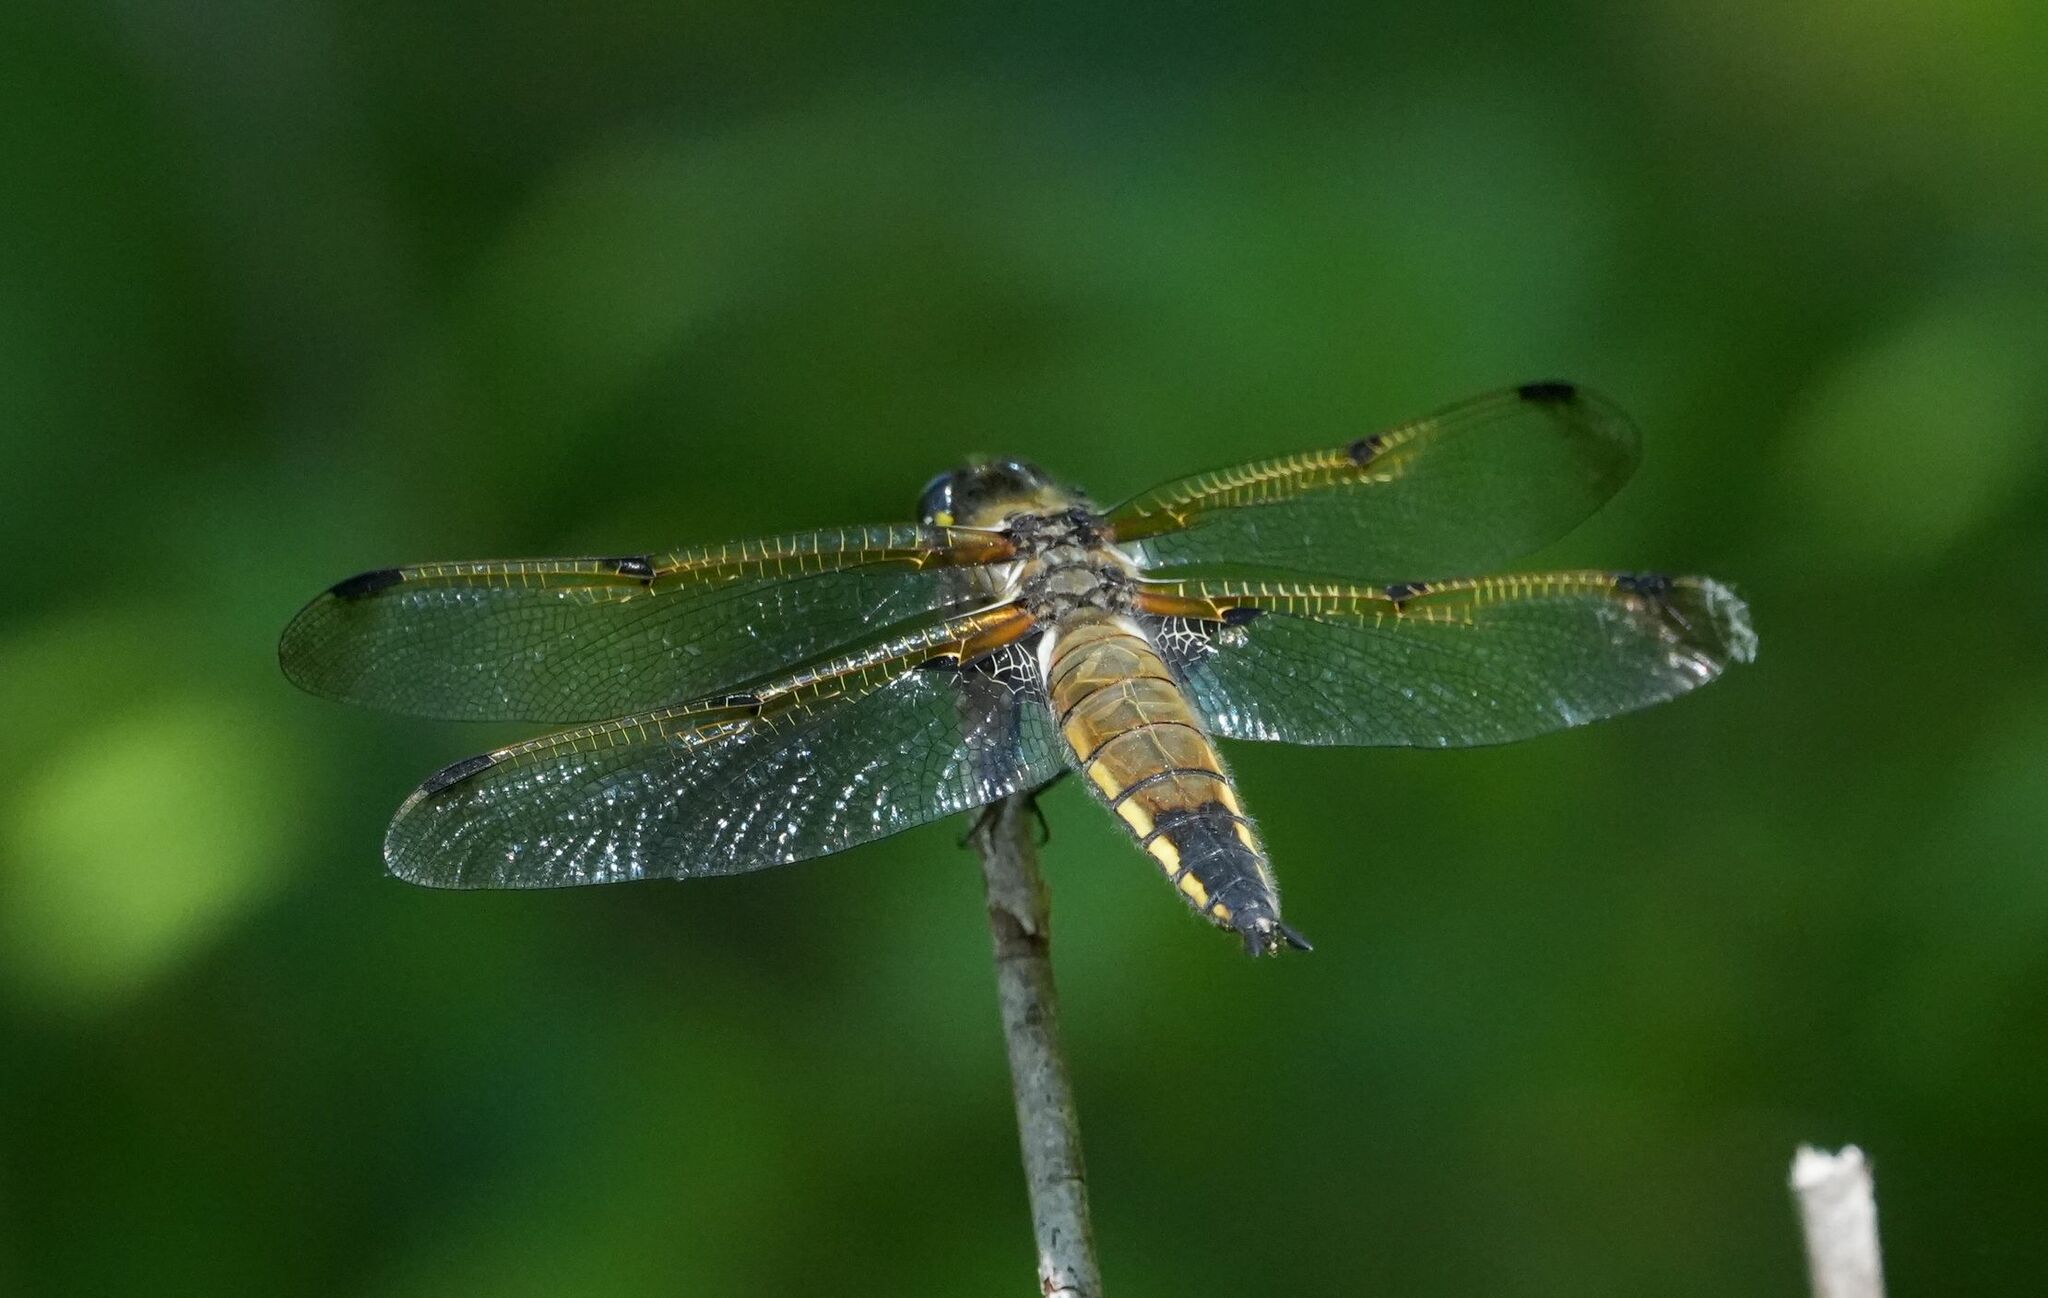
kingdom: Animalia
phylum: Arthropoda
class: Insecta
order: Odonata
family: Libellulidae
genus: Libellula
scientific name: Libellula quadrimaculata
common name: Four-spotted chaser
